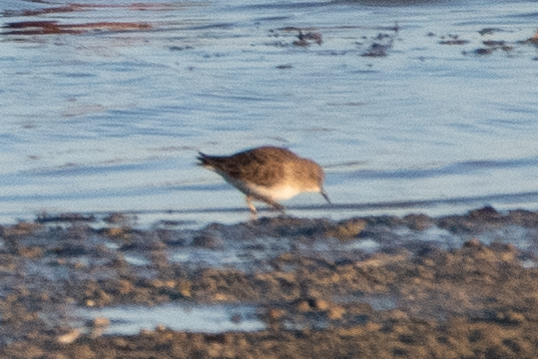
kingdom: Animalia
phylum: Chordata
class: Aves
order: Charadriiformes
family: Scolopacidae
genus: Calidris
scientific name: Calidris minutilla
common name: Least sandpiper
